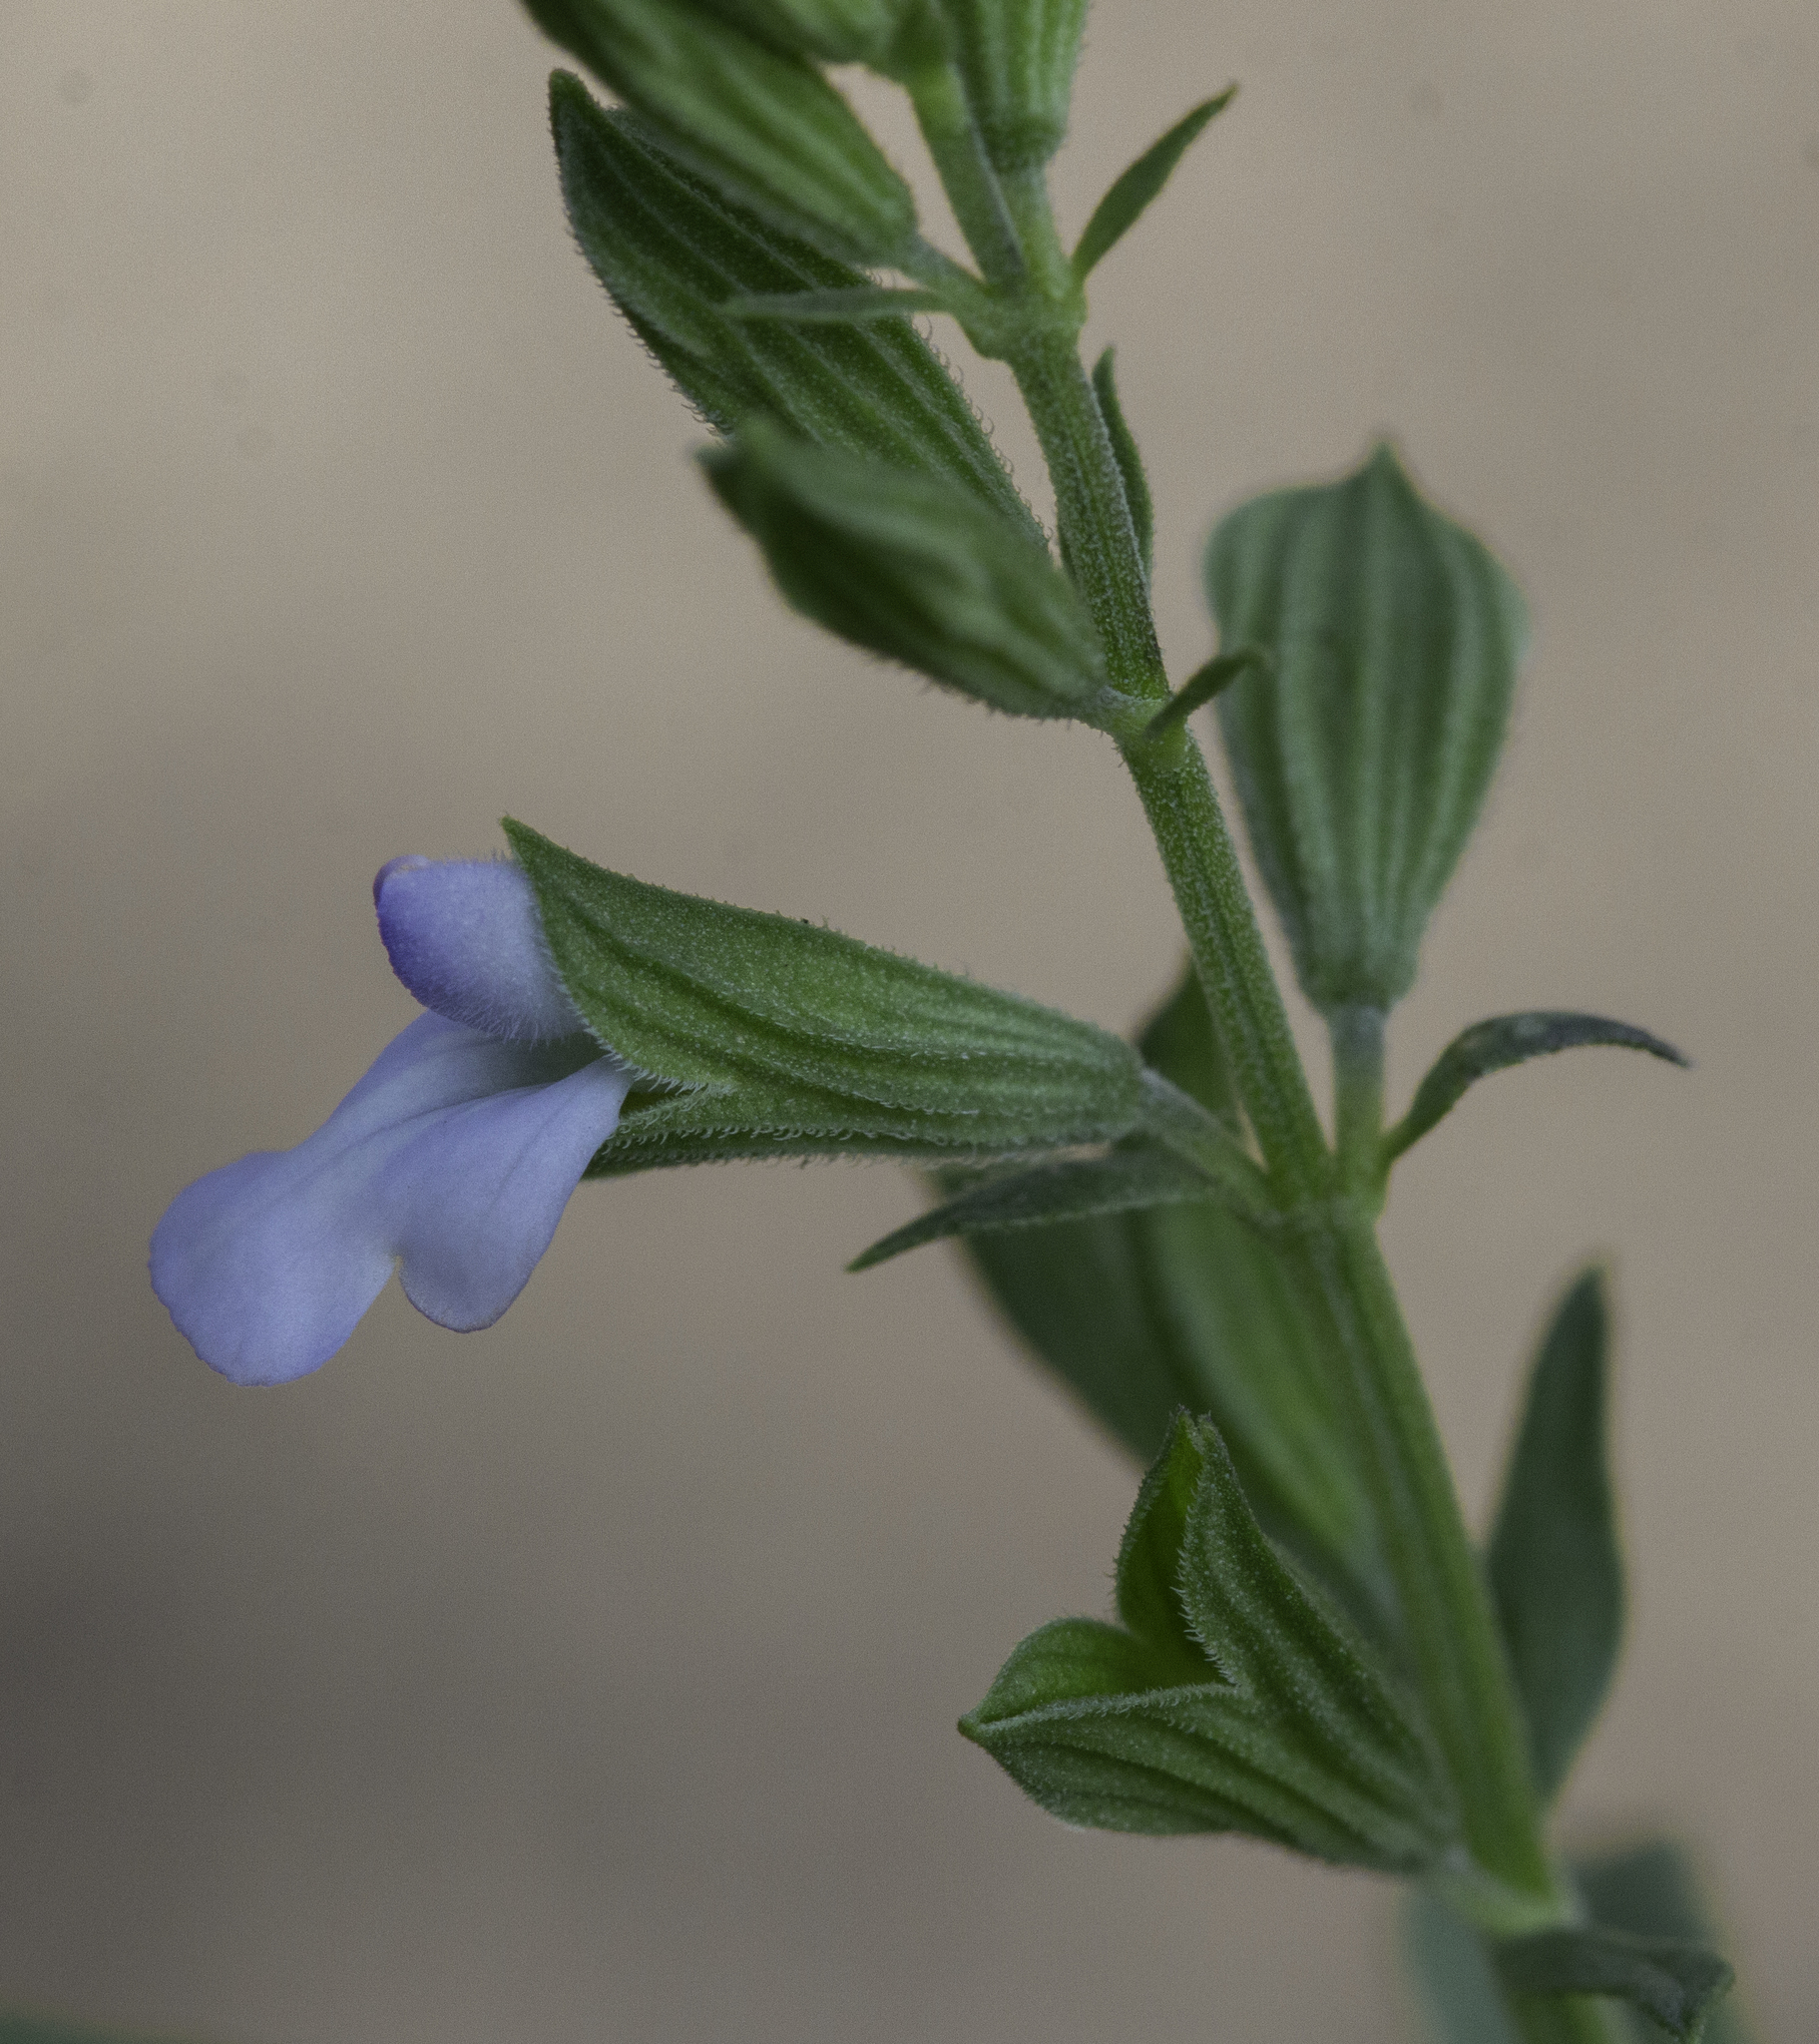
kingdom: Plantae
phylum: Tracheophyta
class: Magnoliopsida
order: Lamiales
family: Lamiaceae
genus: Salvia
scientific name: Salvia reflexa
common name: Mintweed
